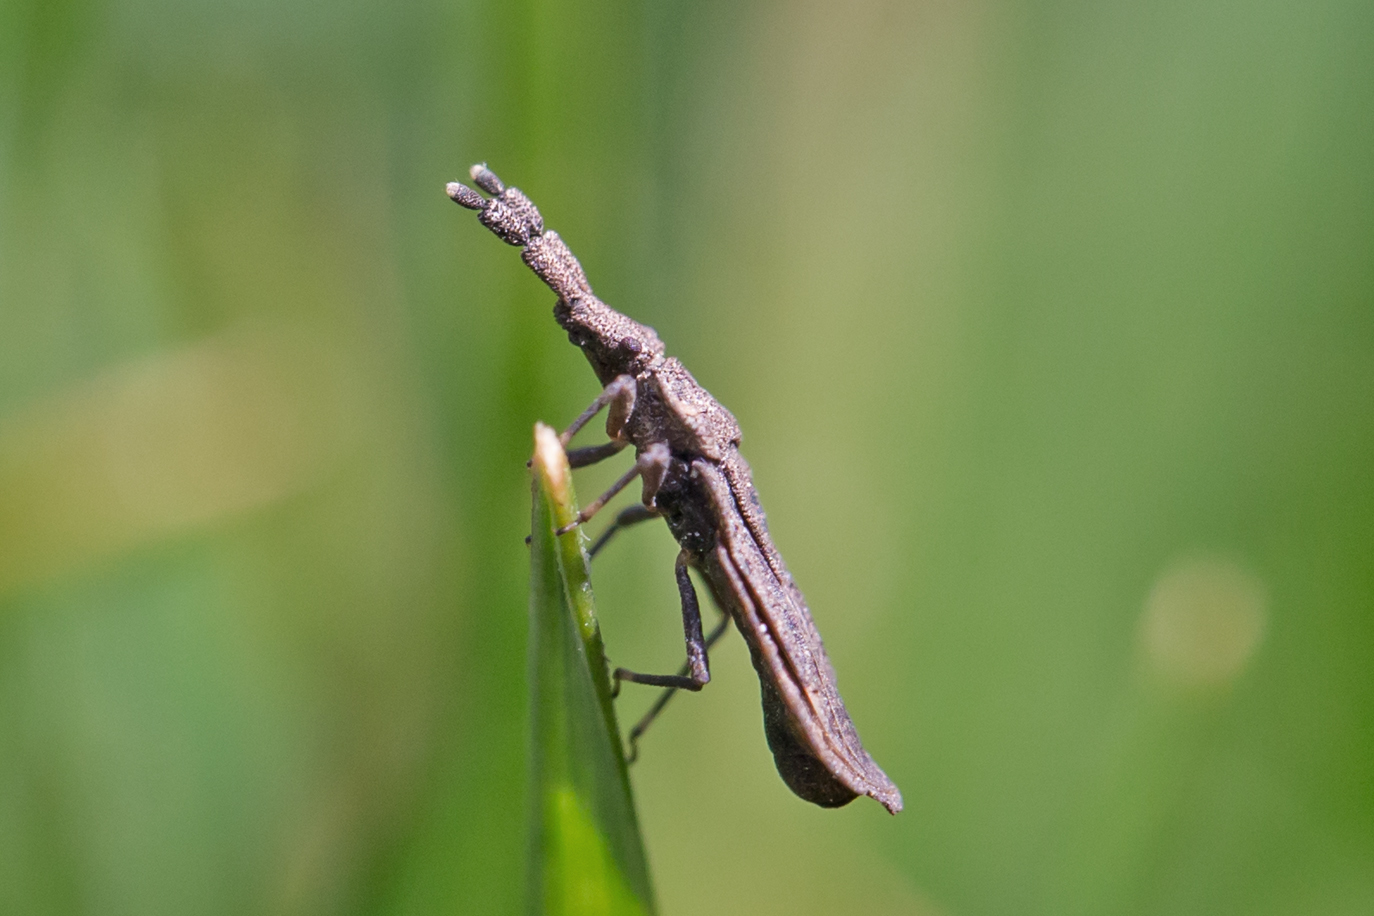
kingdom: Animalia
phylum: Arthropoda
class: Insecta
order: Hemiptera
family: Aradidae
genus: Aradus
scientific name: Aradus robustus
